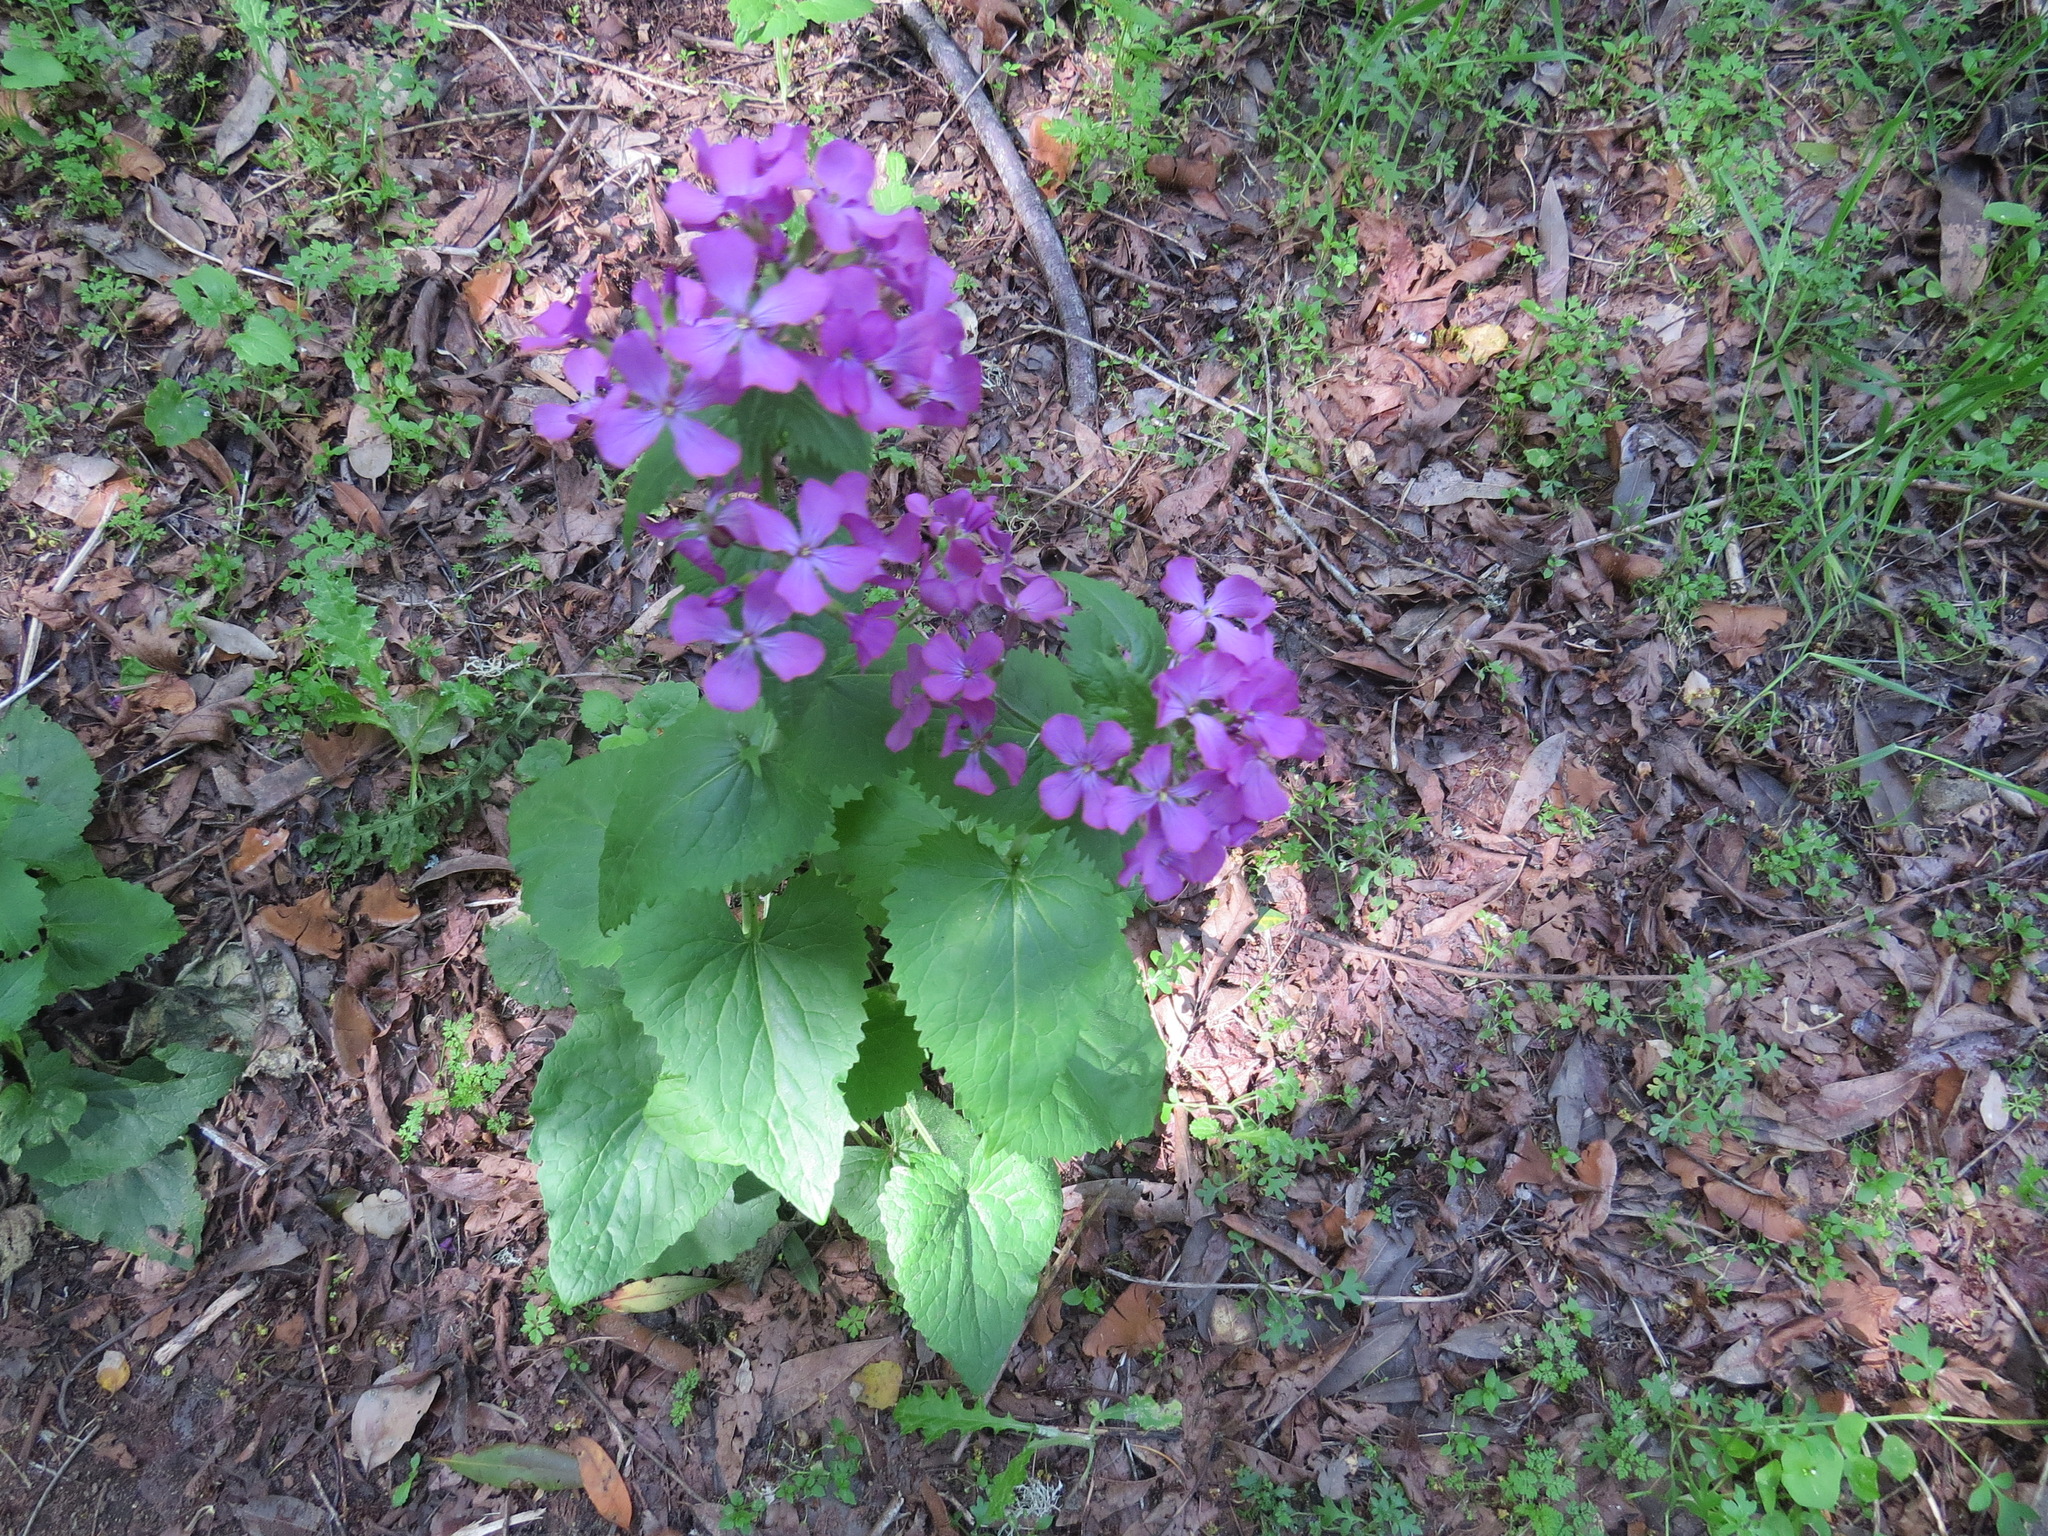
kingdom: Plantae
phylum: Tracheophyta
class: Magnoliopsida
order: Brassicales
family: Brassicaceae
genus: Lunaria
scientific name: Lunaria annua
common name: Honesty
